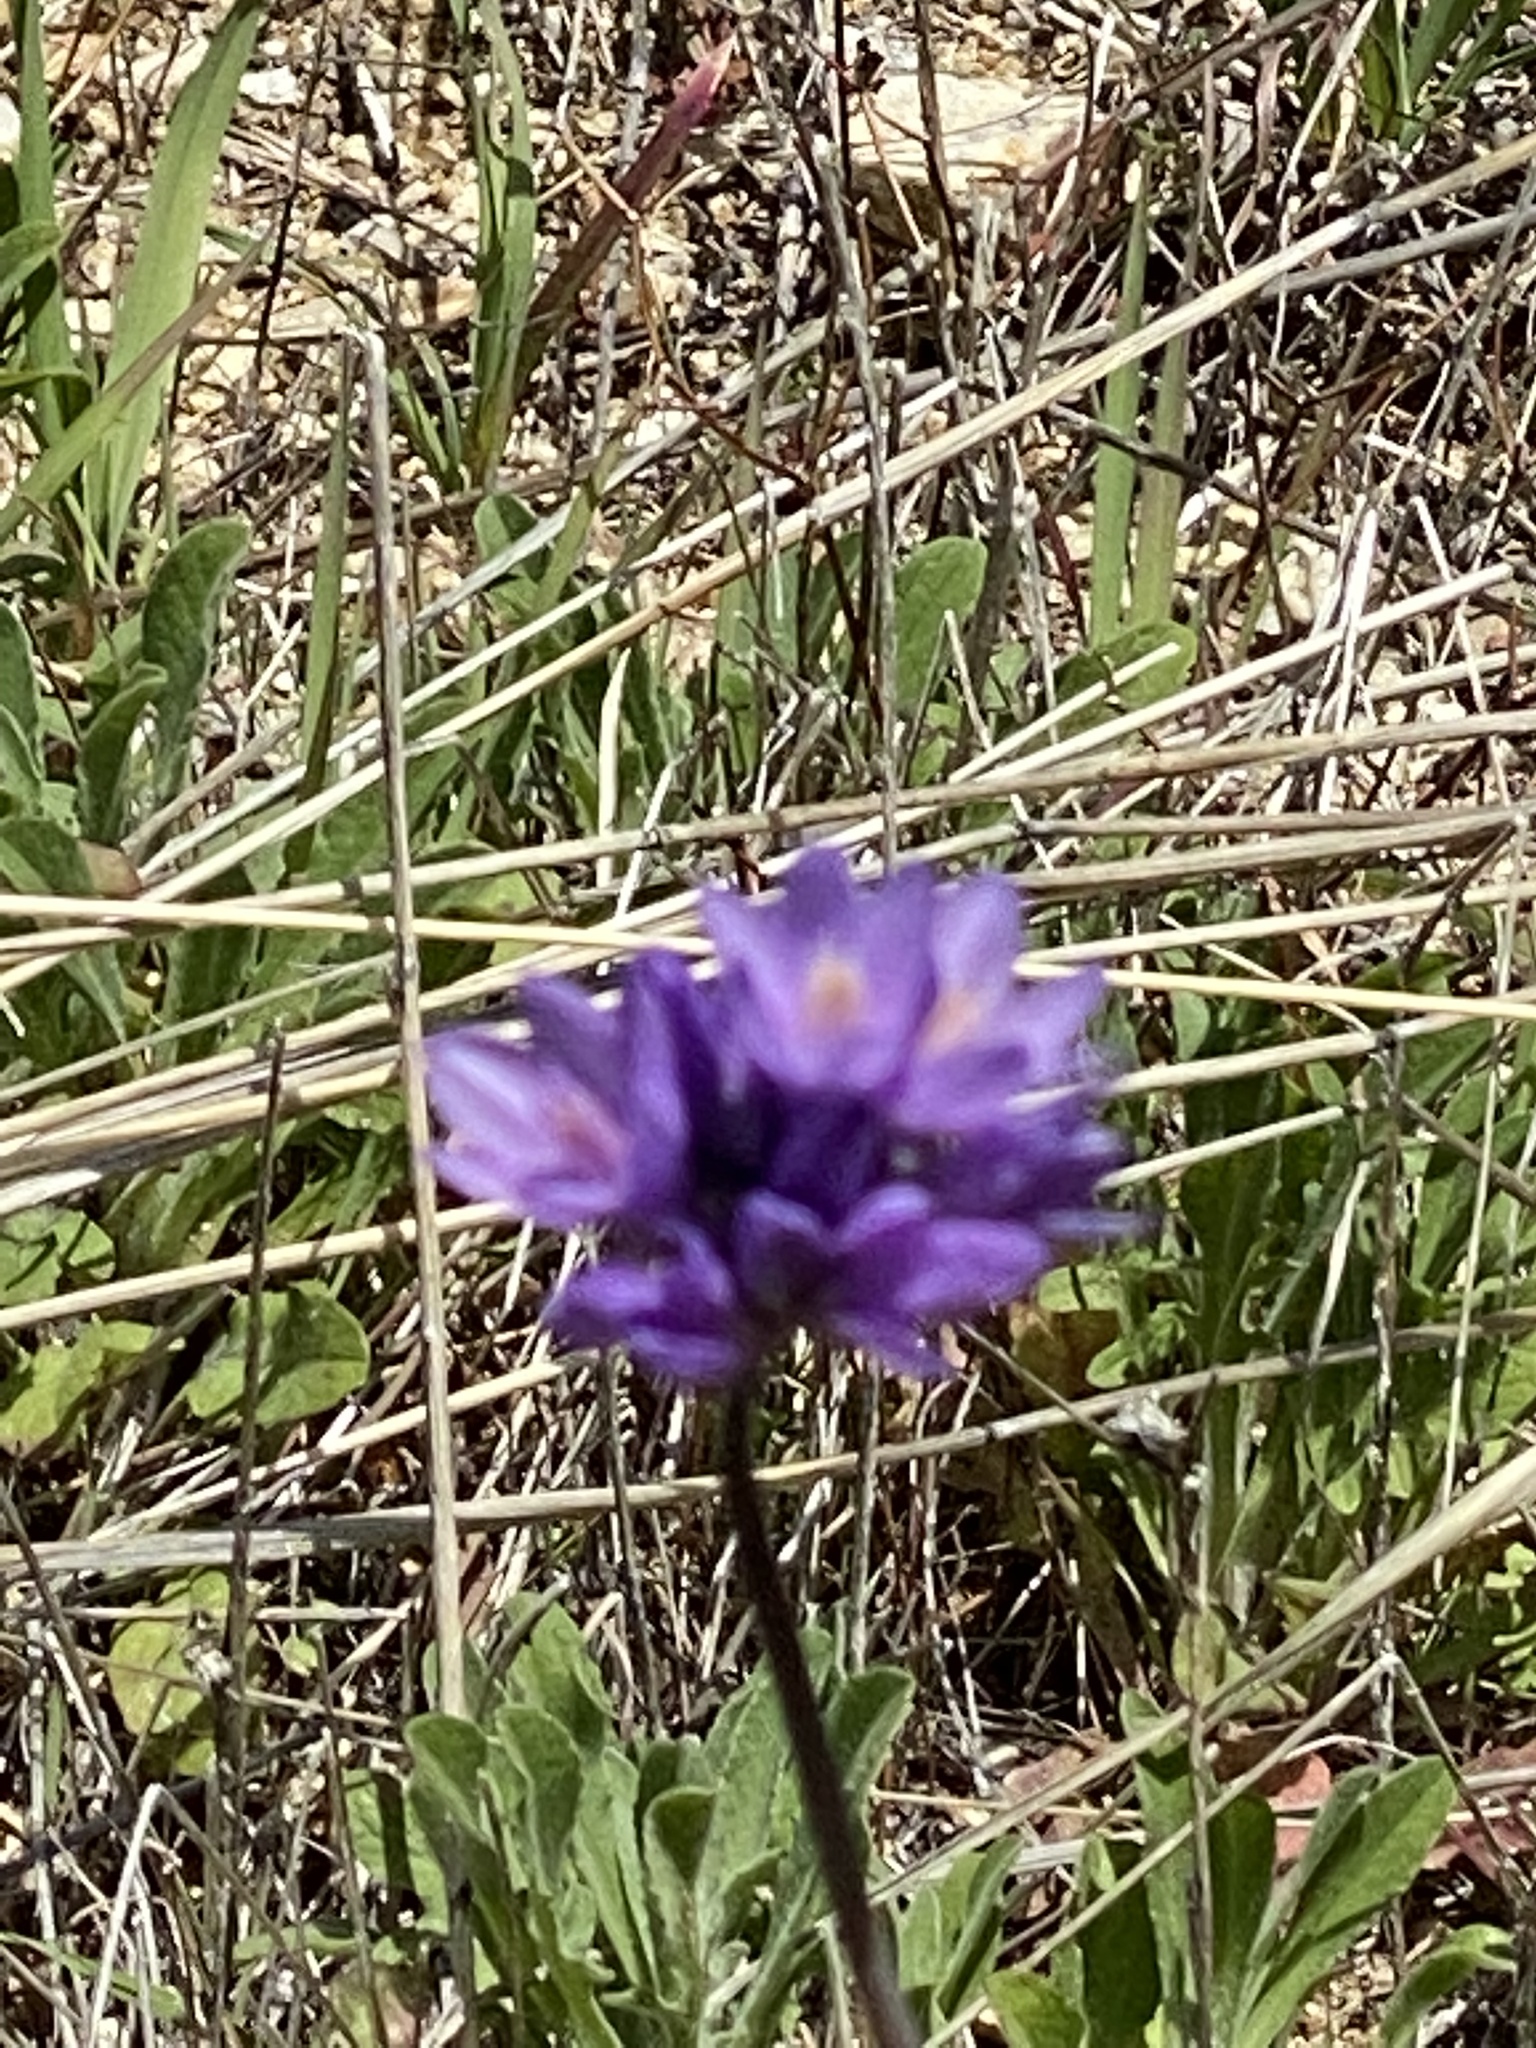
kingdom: Plantae
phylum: Tracheophyta
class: Liliopsida
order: Asparagales
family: Asparagaceae
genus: Dipterostemon
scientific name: Dipterostemon capitatus
